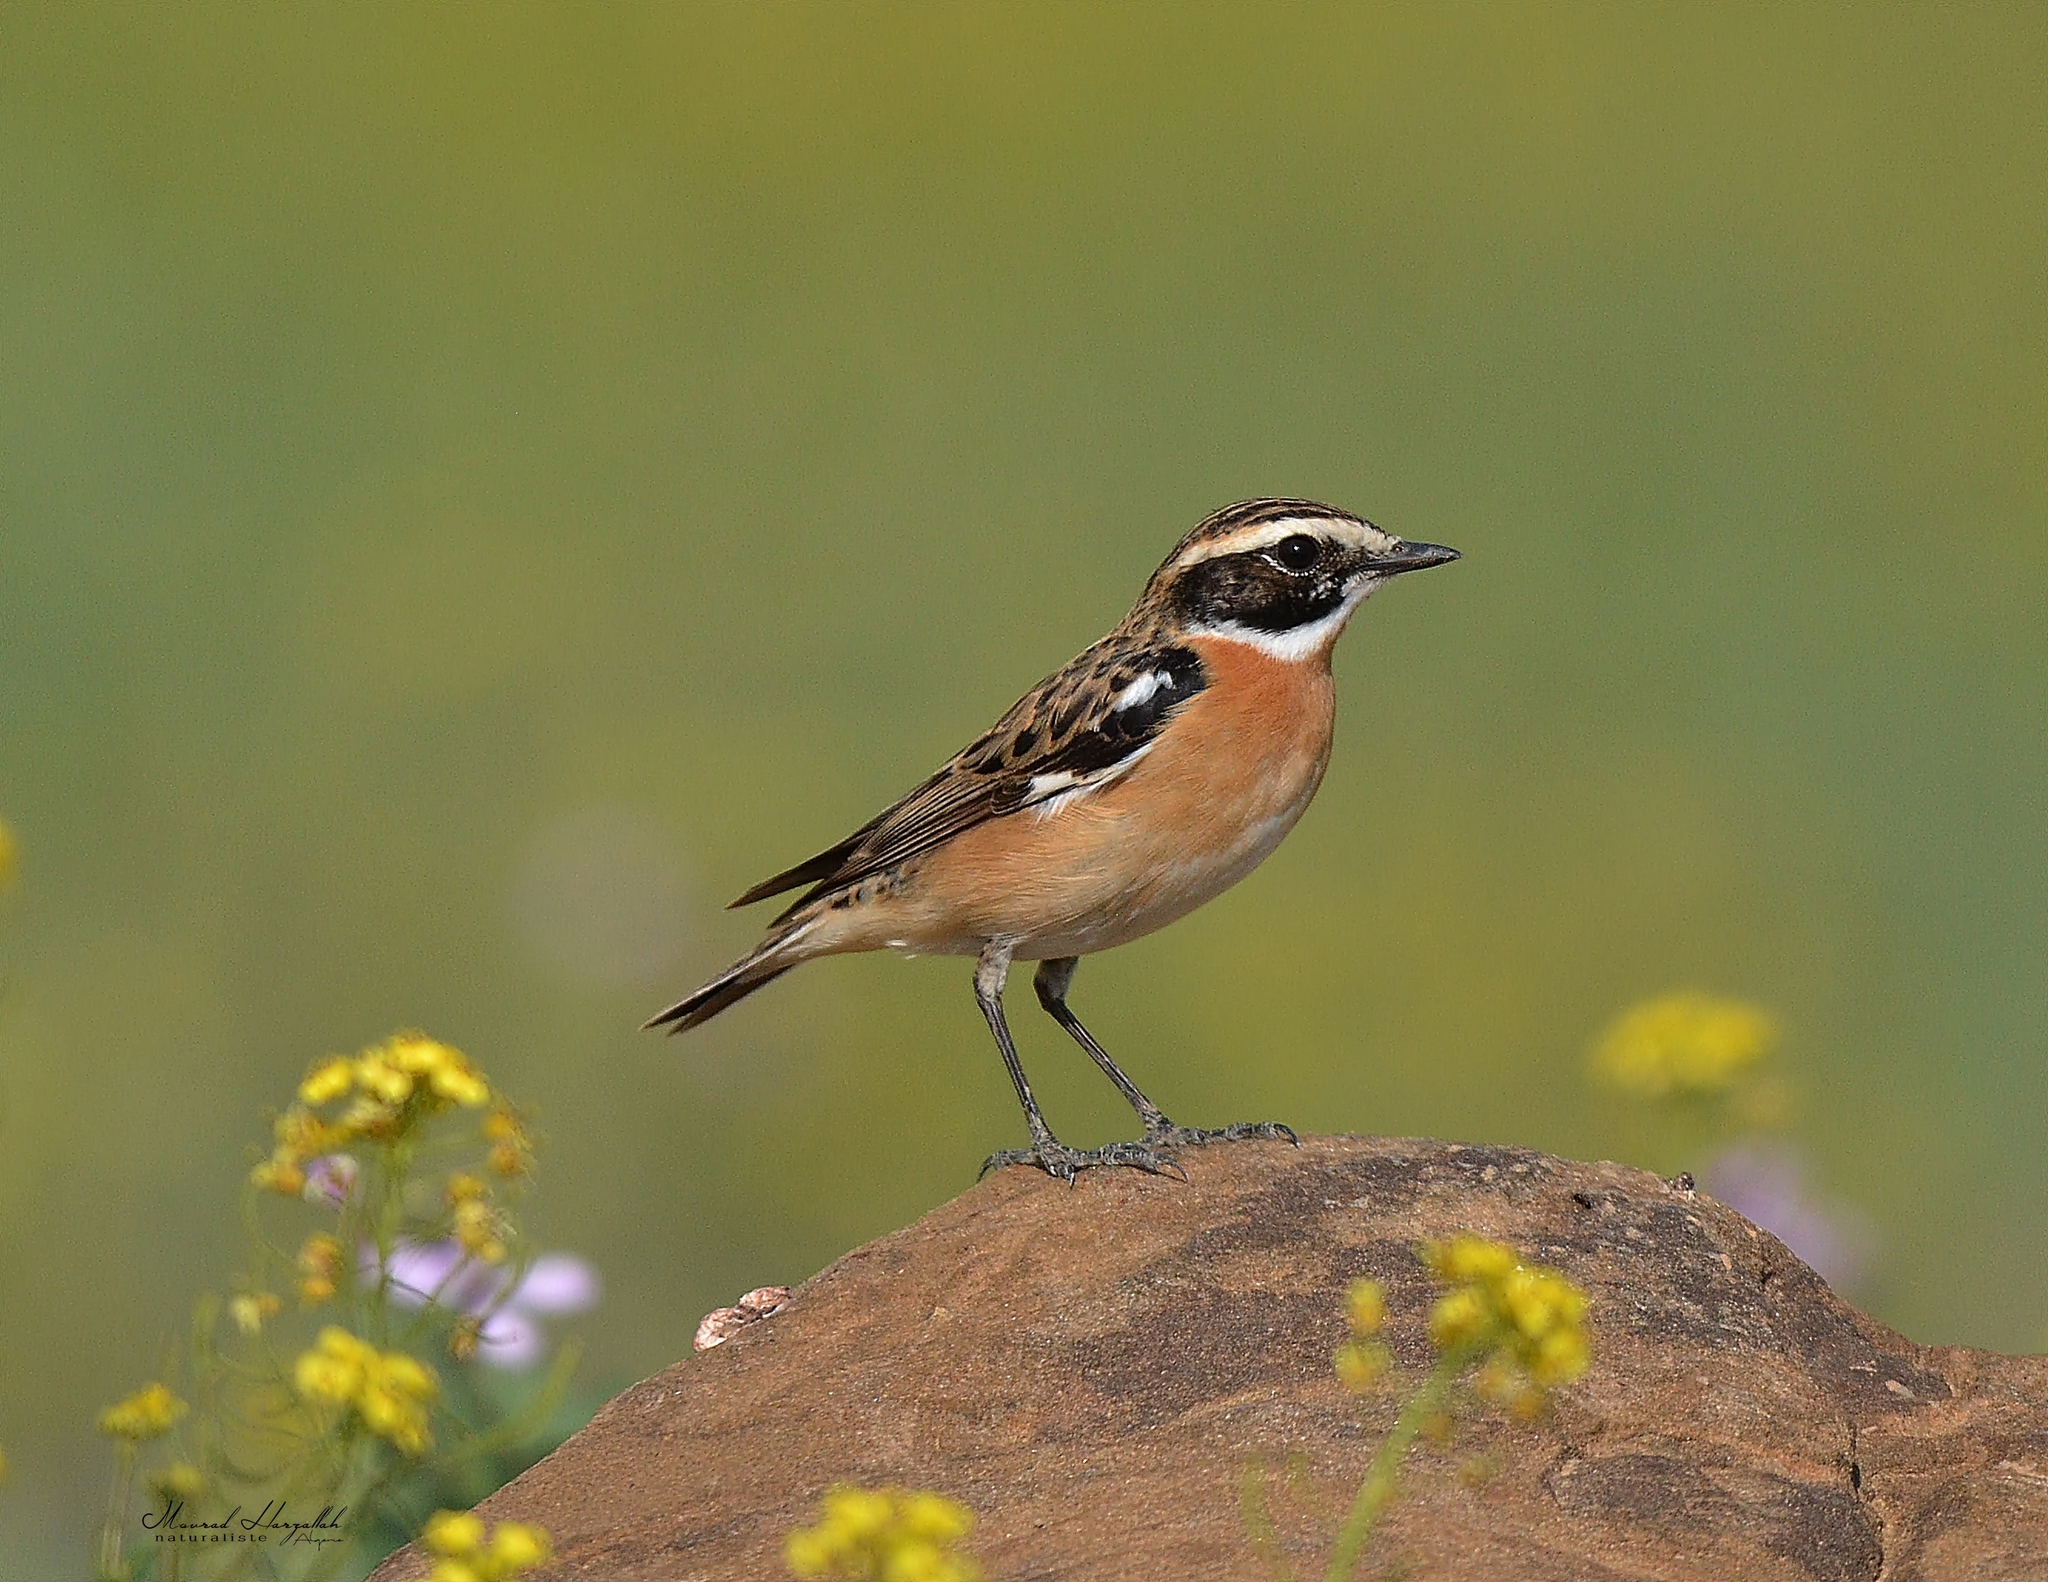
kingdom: Animalia
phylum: Chordata
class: Aves
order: Passeriformes
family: Muscicapidae
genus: Saxicola
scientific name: Saxicola rubetra
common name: Whinchat
